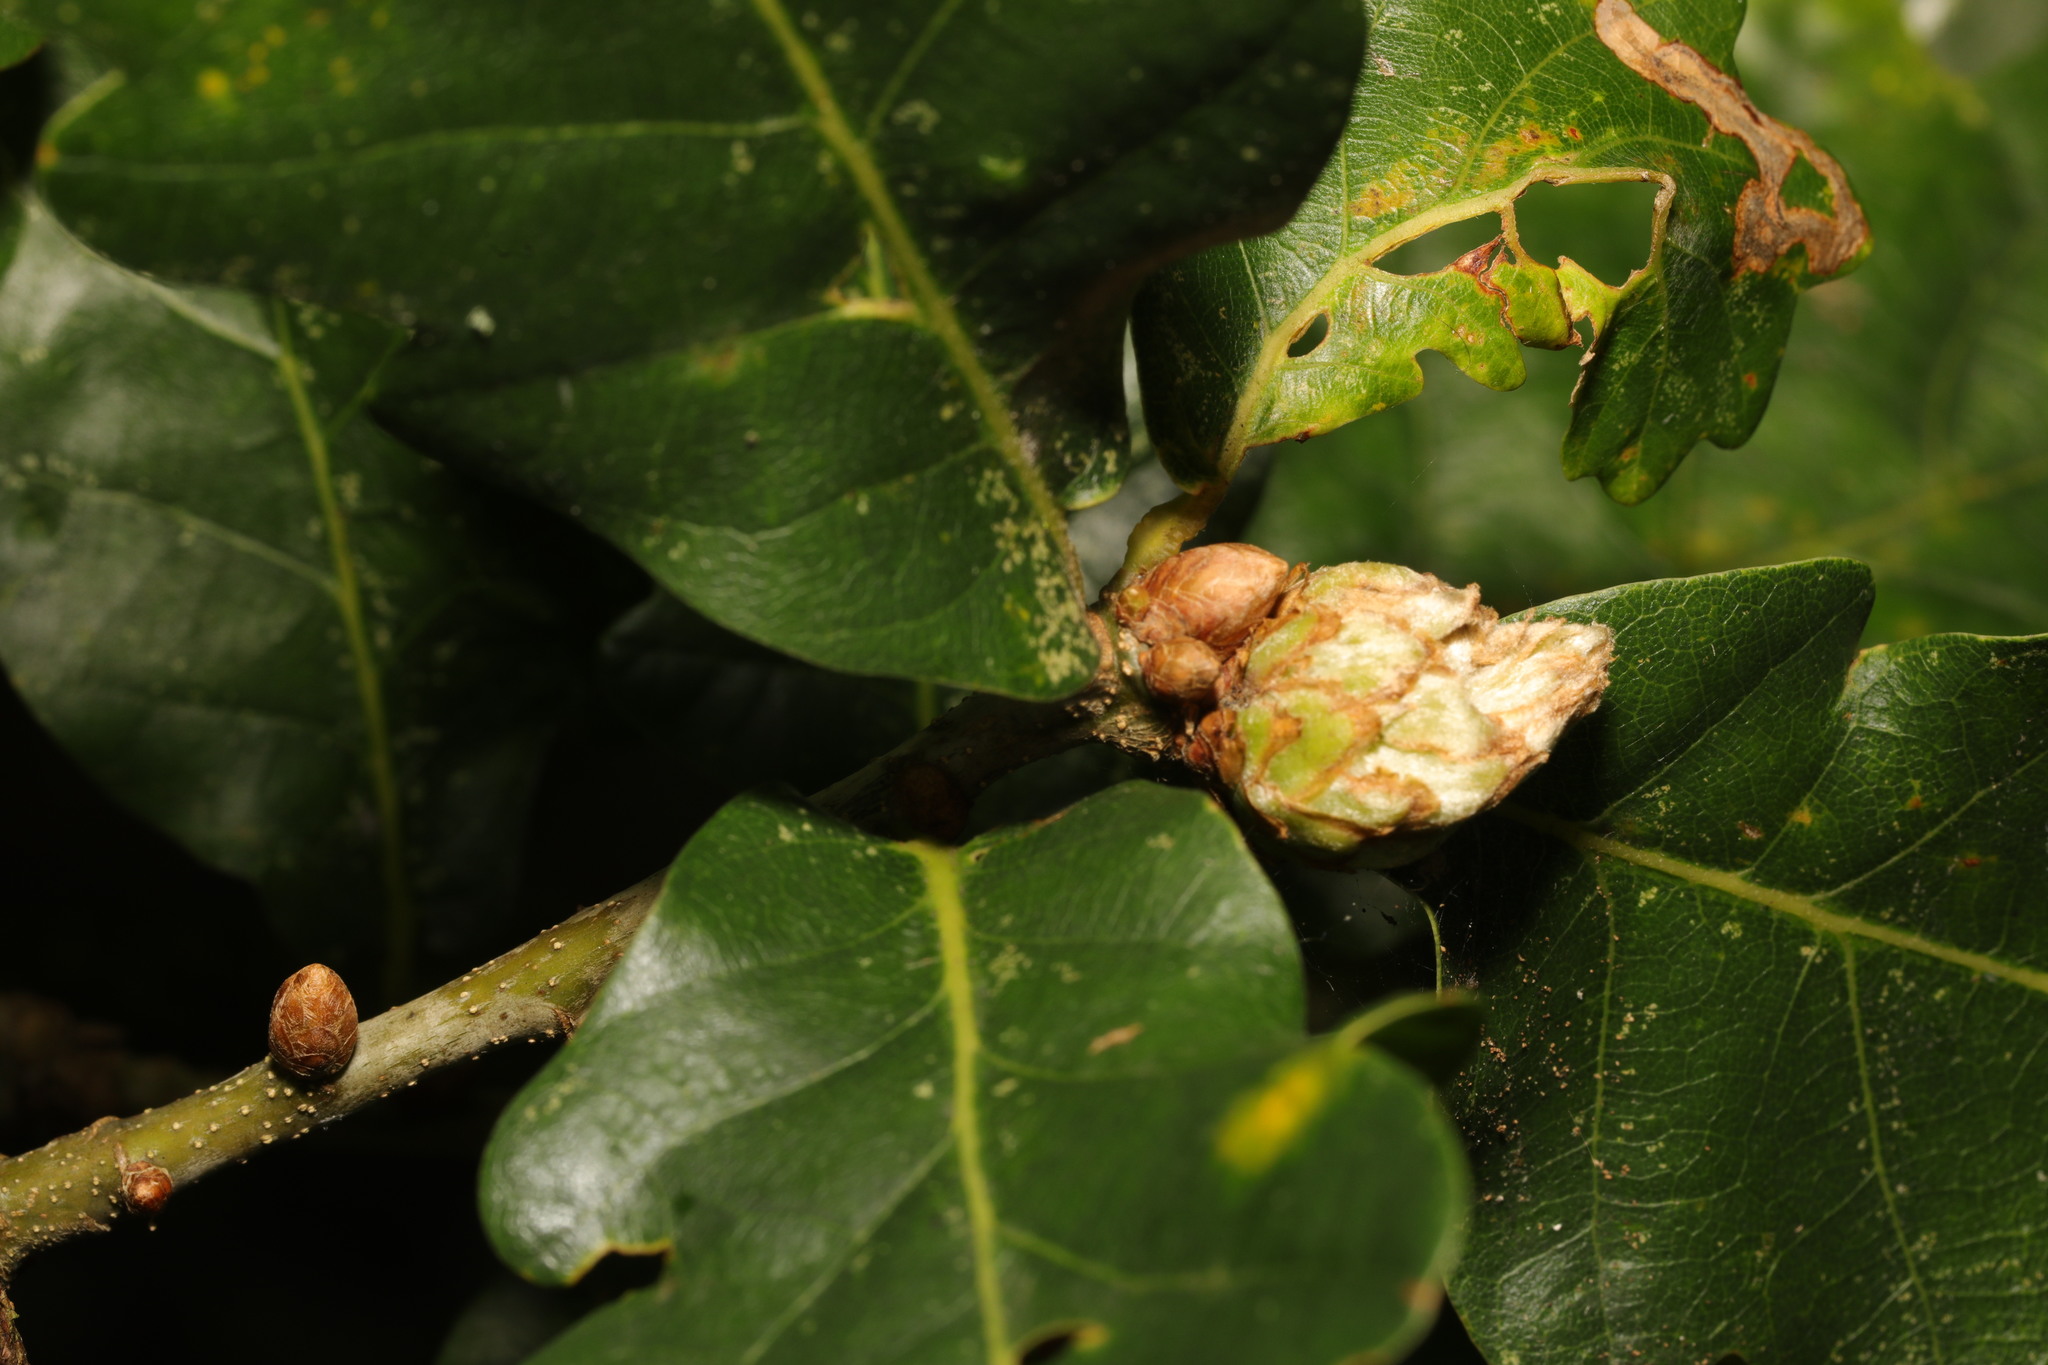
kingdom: Animalia
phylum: Arthropoda
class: Insecta
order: Hymenoptera
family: Cynipidae
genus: Andricus
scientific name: Andricus foecundatrix
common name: Artichoke gall
